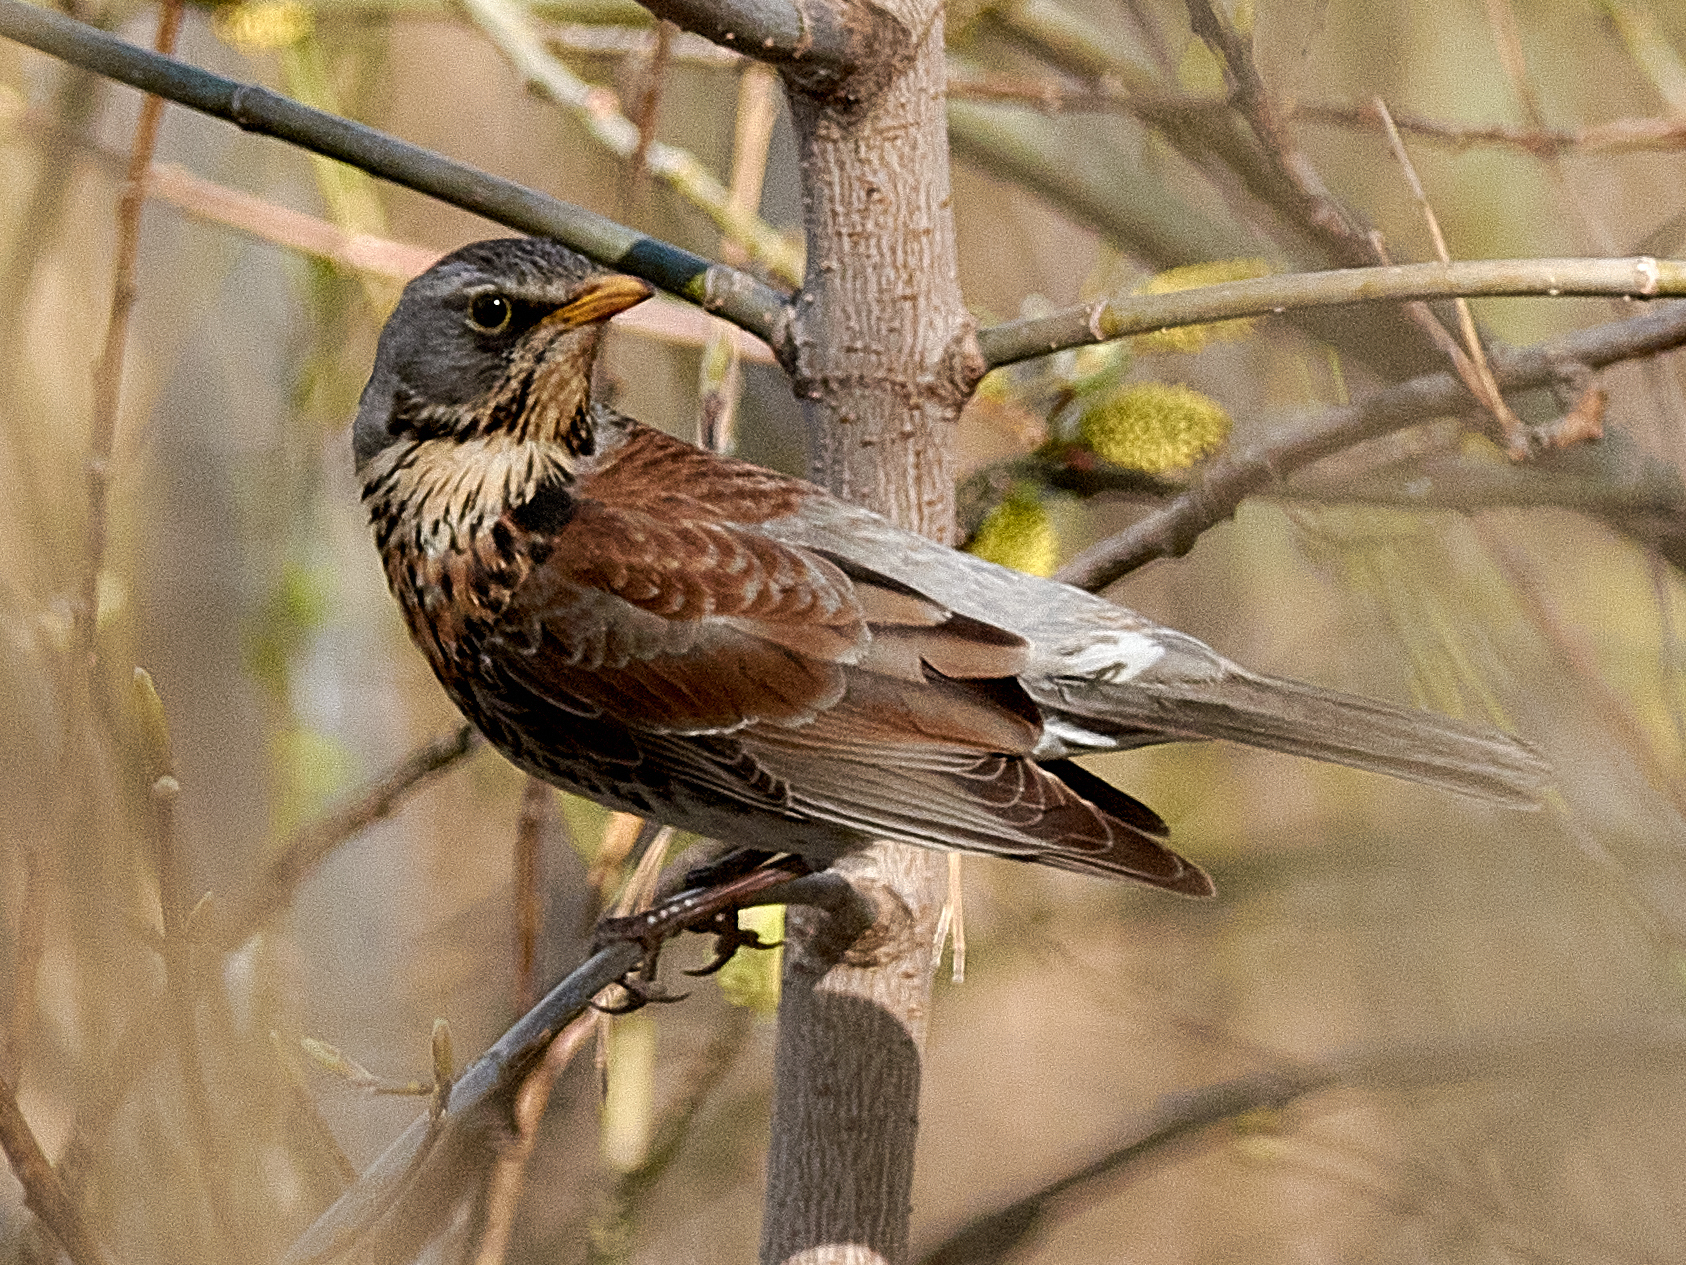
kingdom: Animalia
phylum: Chordata
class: Aves
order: Passeriformes
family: Turdidae
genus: Turdus
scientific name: Turdus pilaris
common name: Fieldfare
